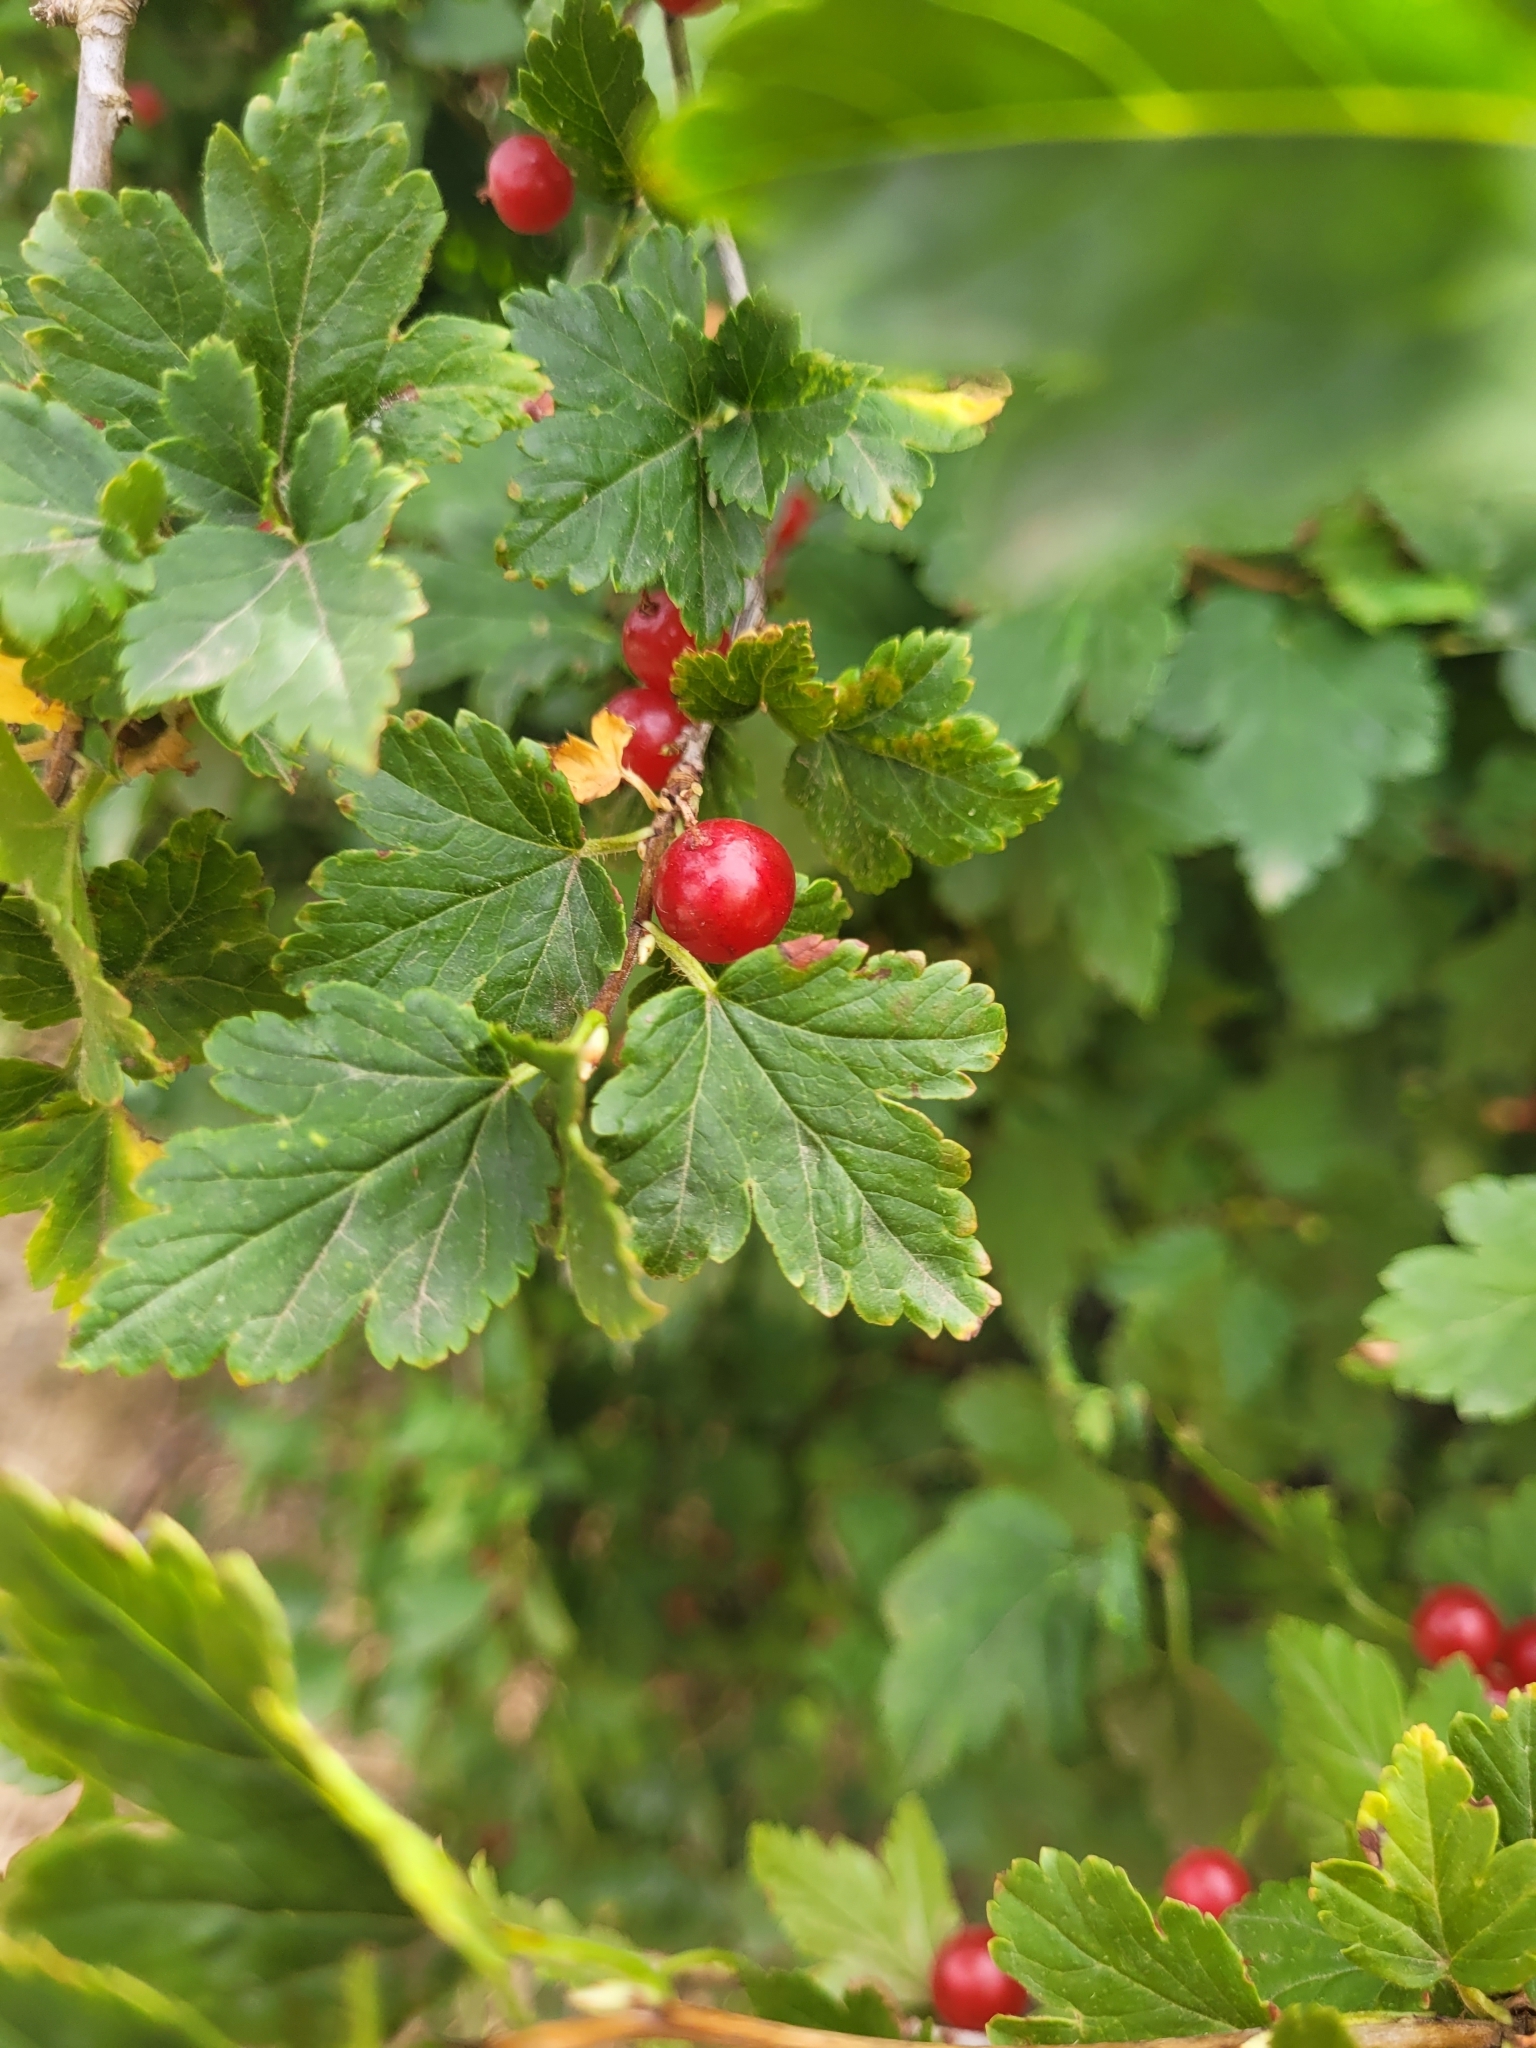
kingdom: Plantae
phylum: Tracheophyta
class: Magnoliopsida
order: Saxifragales
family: Grossulariaceae
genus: Ribes
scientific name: Ribes alpinum
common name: Alpine currant
